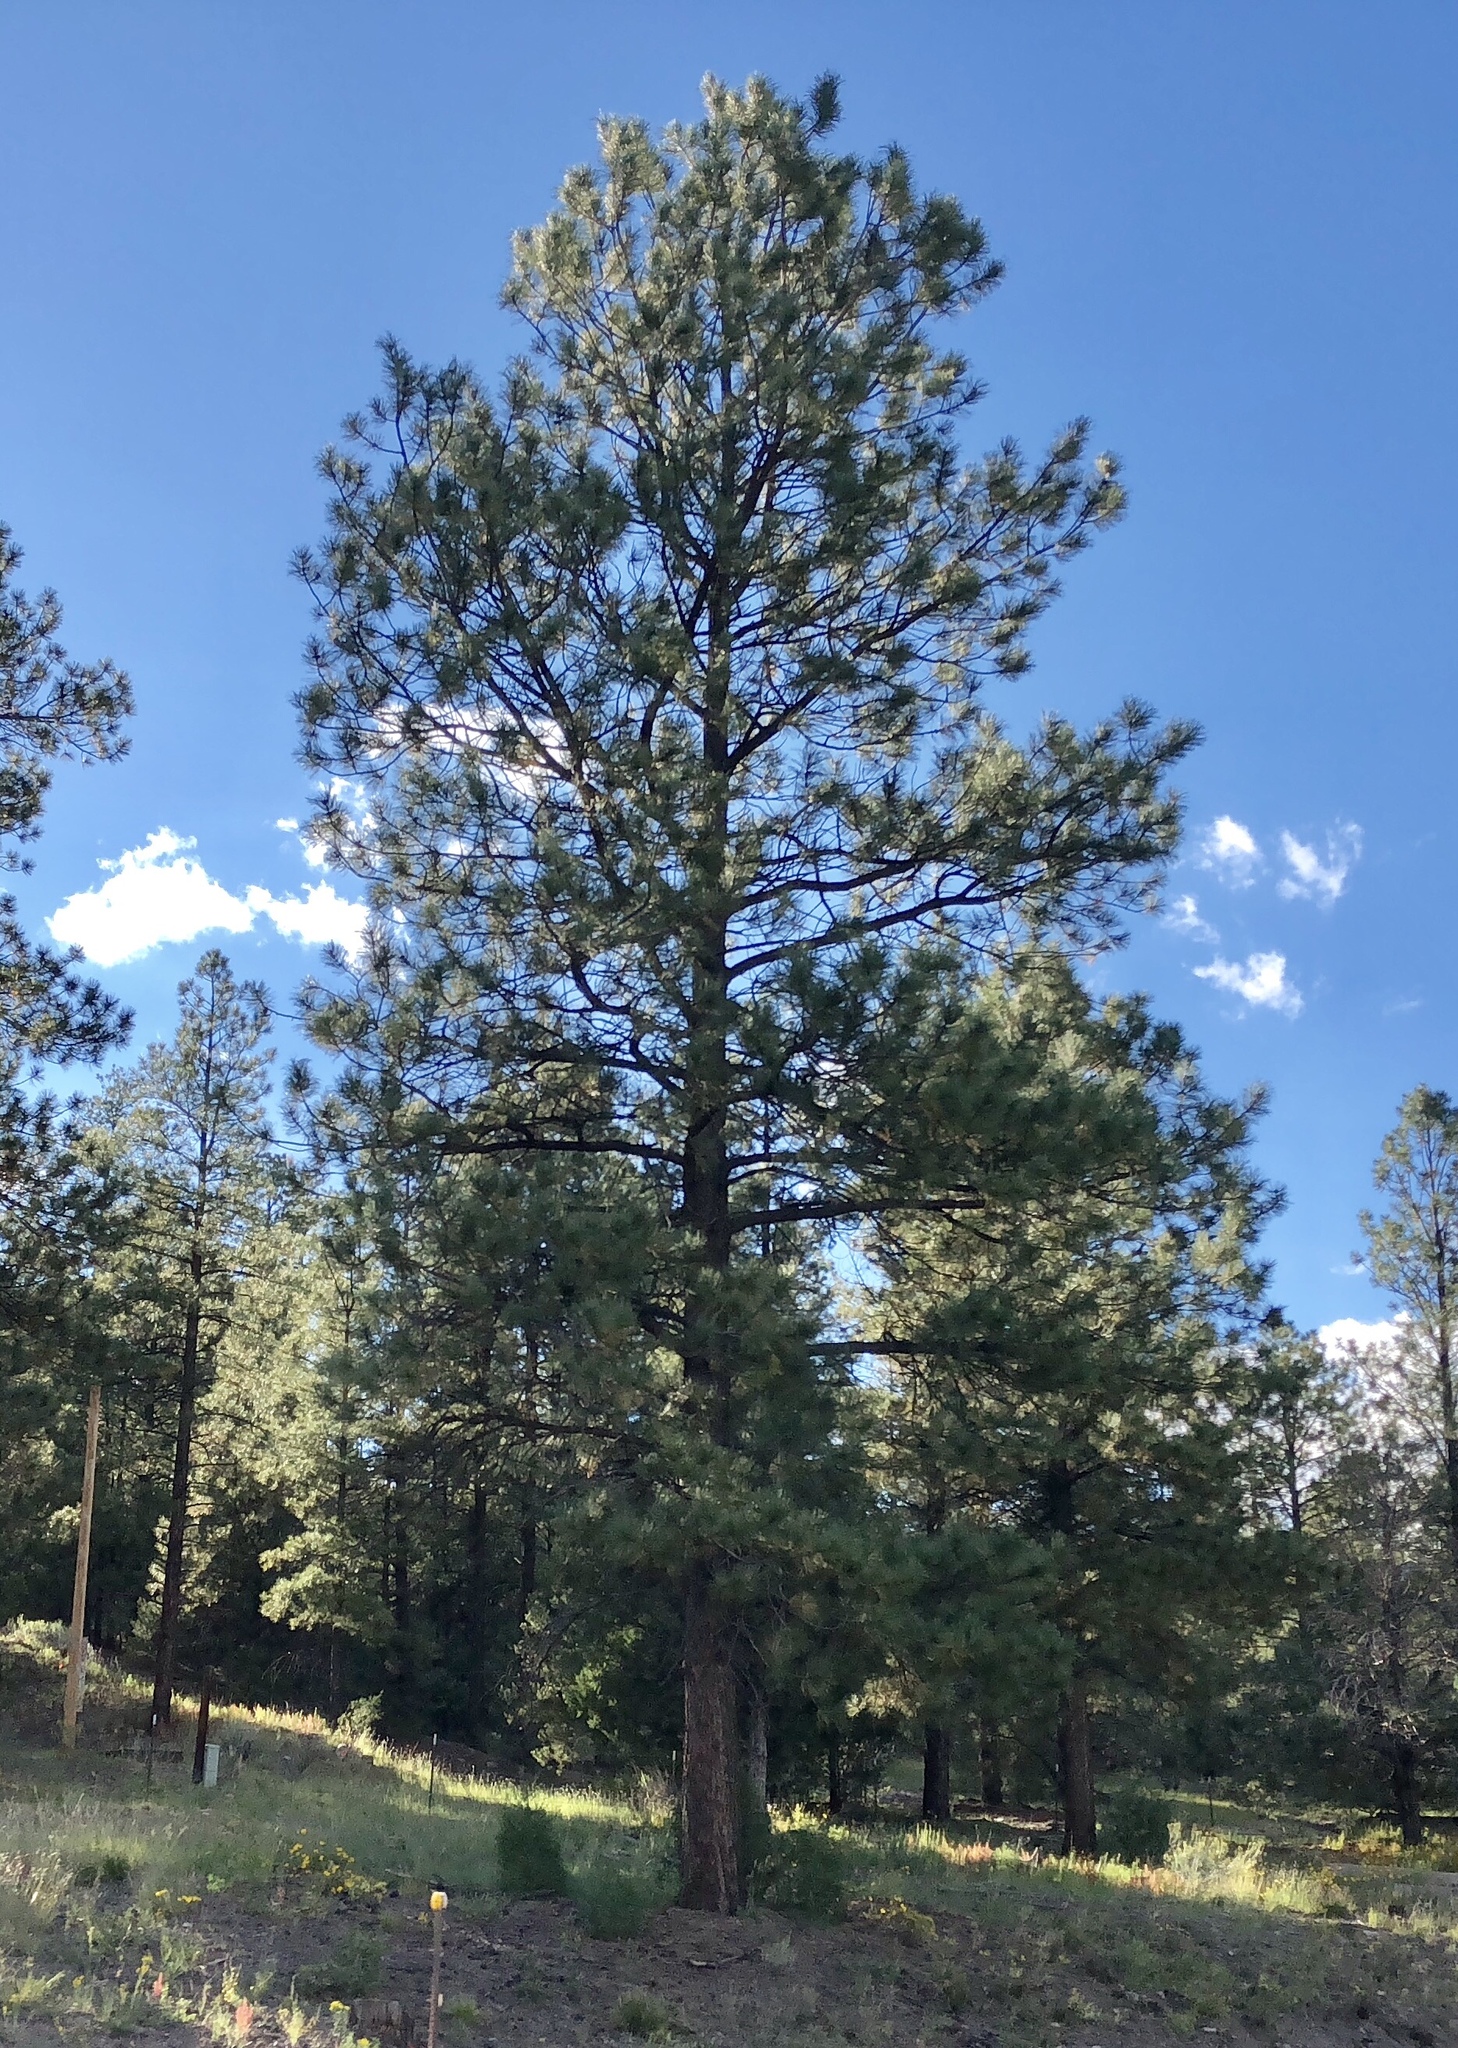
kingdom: Plantae
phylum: Tracheophyta
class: Pinopsida
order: Pinales
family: Pinaceae
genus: Pinus
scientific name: Pinus ponderosa
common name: Western yellow-pine
